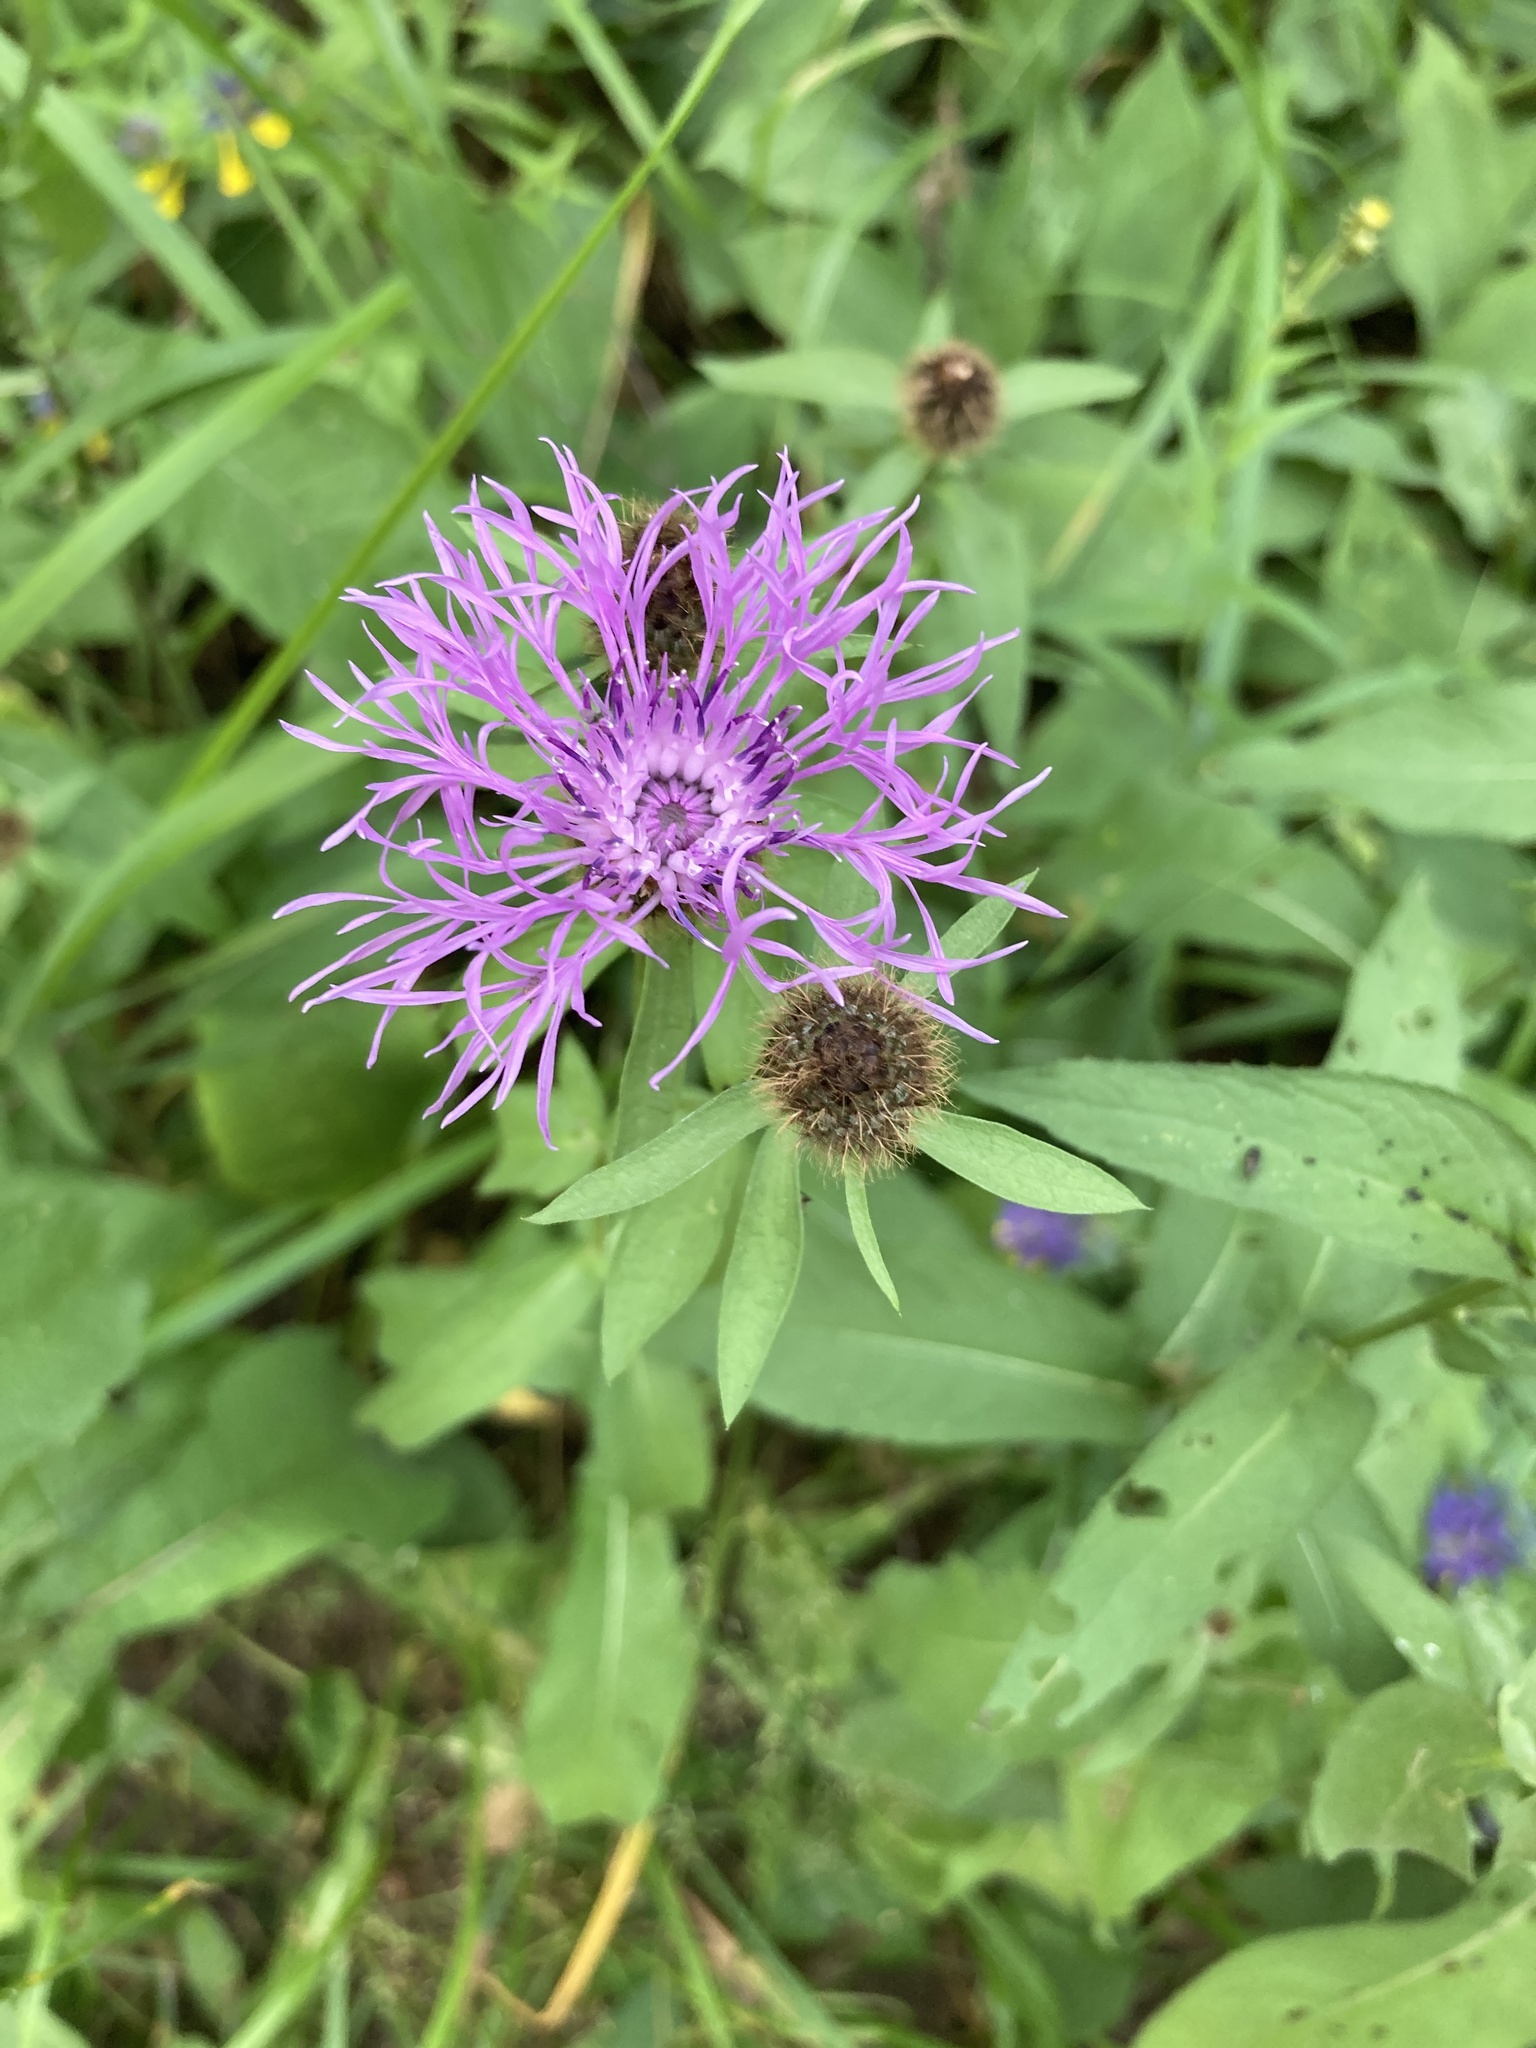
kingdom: Plantae
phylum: Tracheophyta
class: Magnoliopsida
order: Asterales
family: Asteraceae
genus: Centaurea
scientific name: Centaurea pseudophrygia
